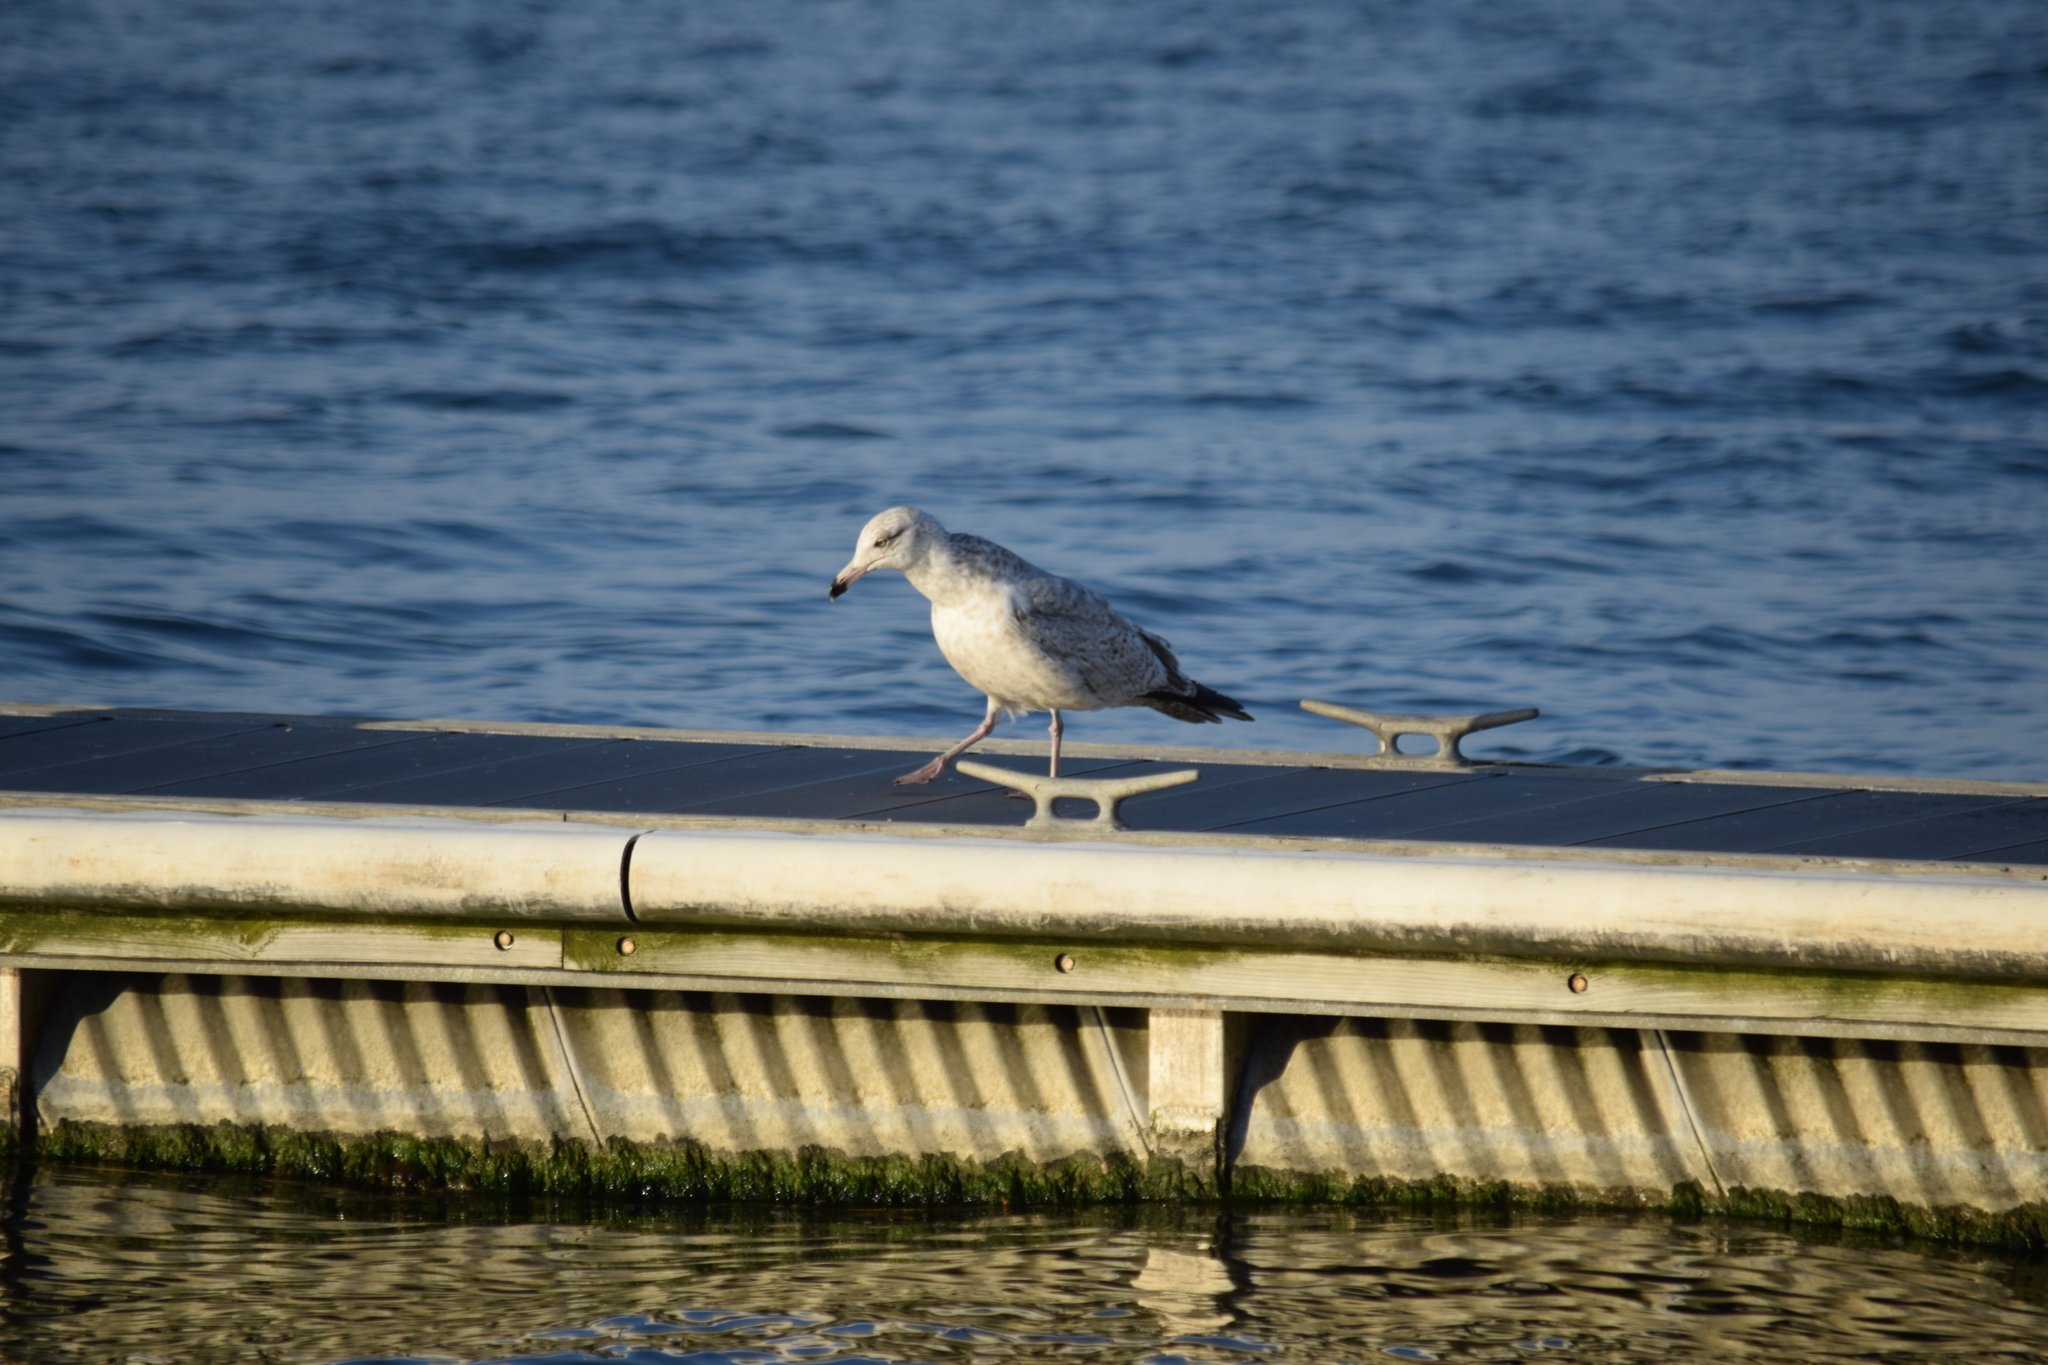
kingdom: Animalia
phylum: Chordata
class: Aves
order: Charadriiformes
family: Laridae
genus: Larus
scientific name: Larus argentatus
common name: Herring gull
